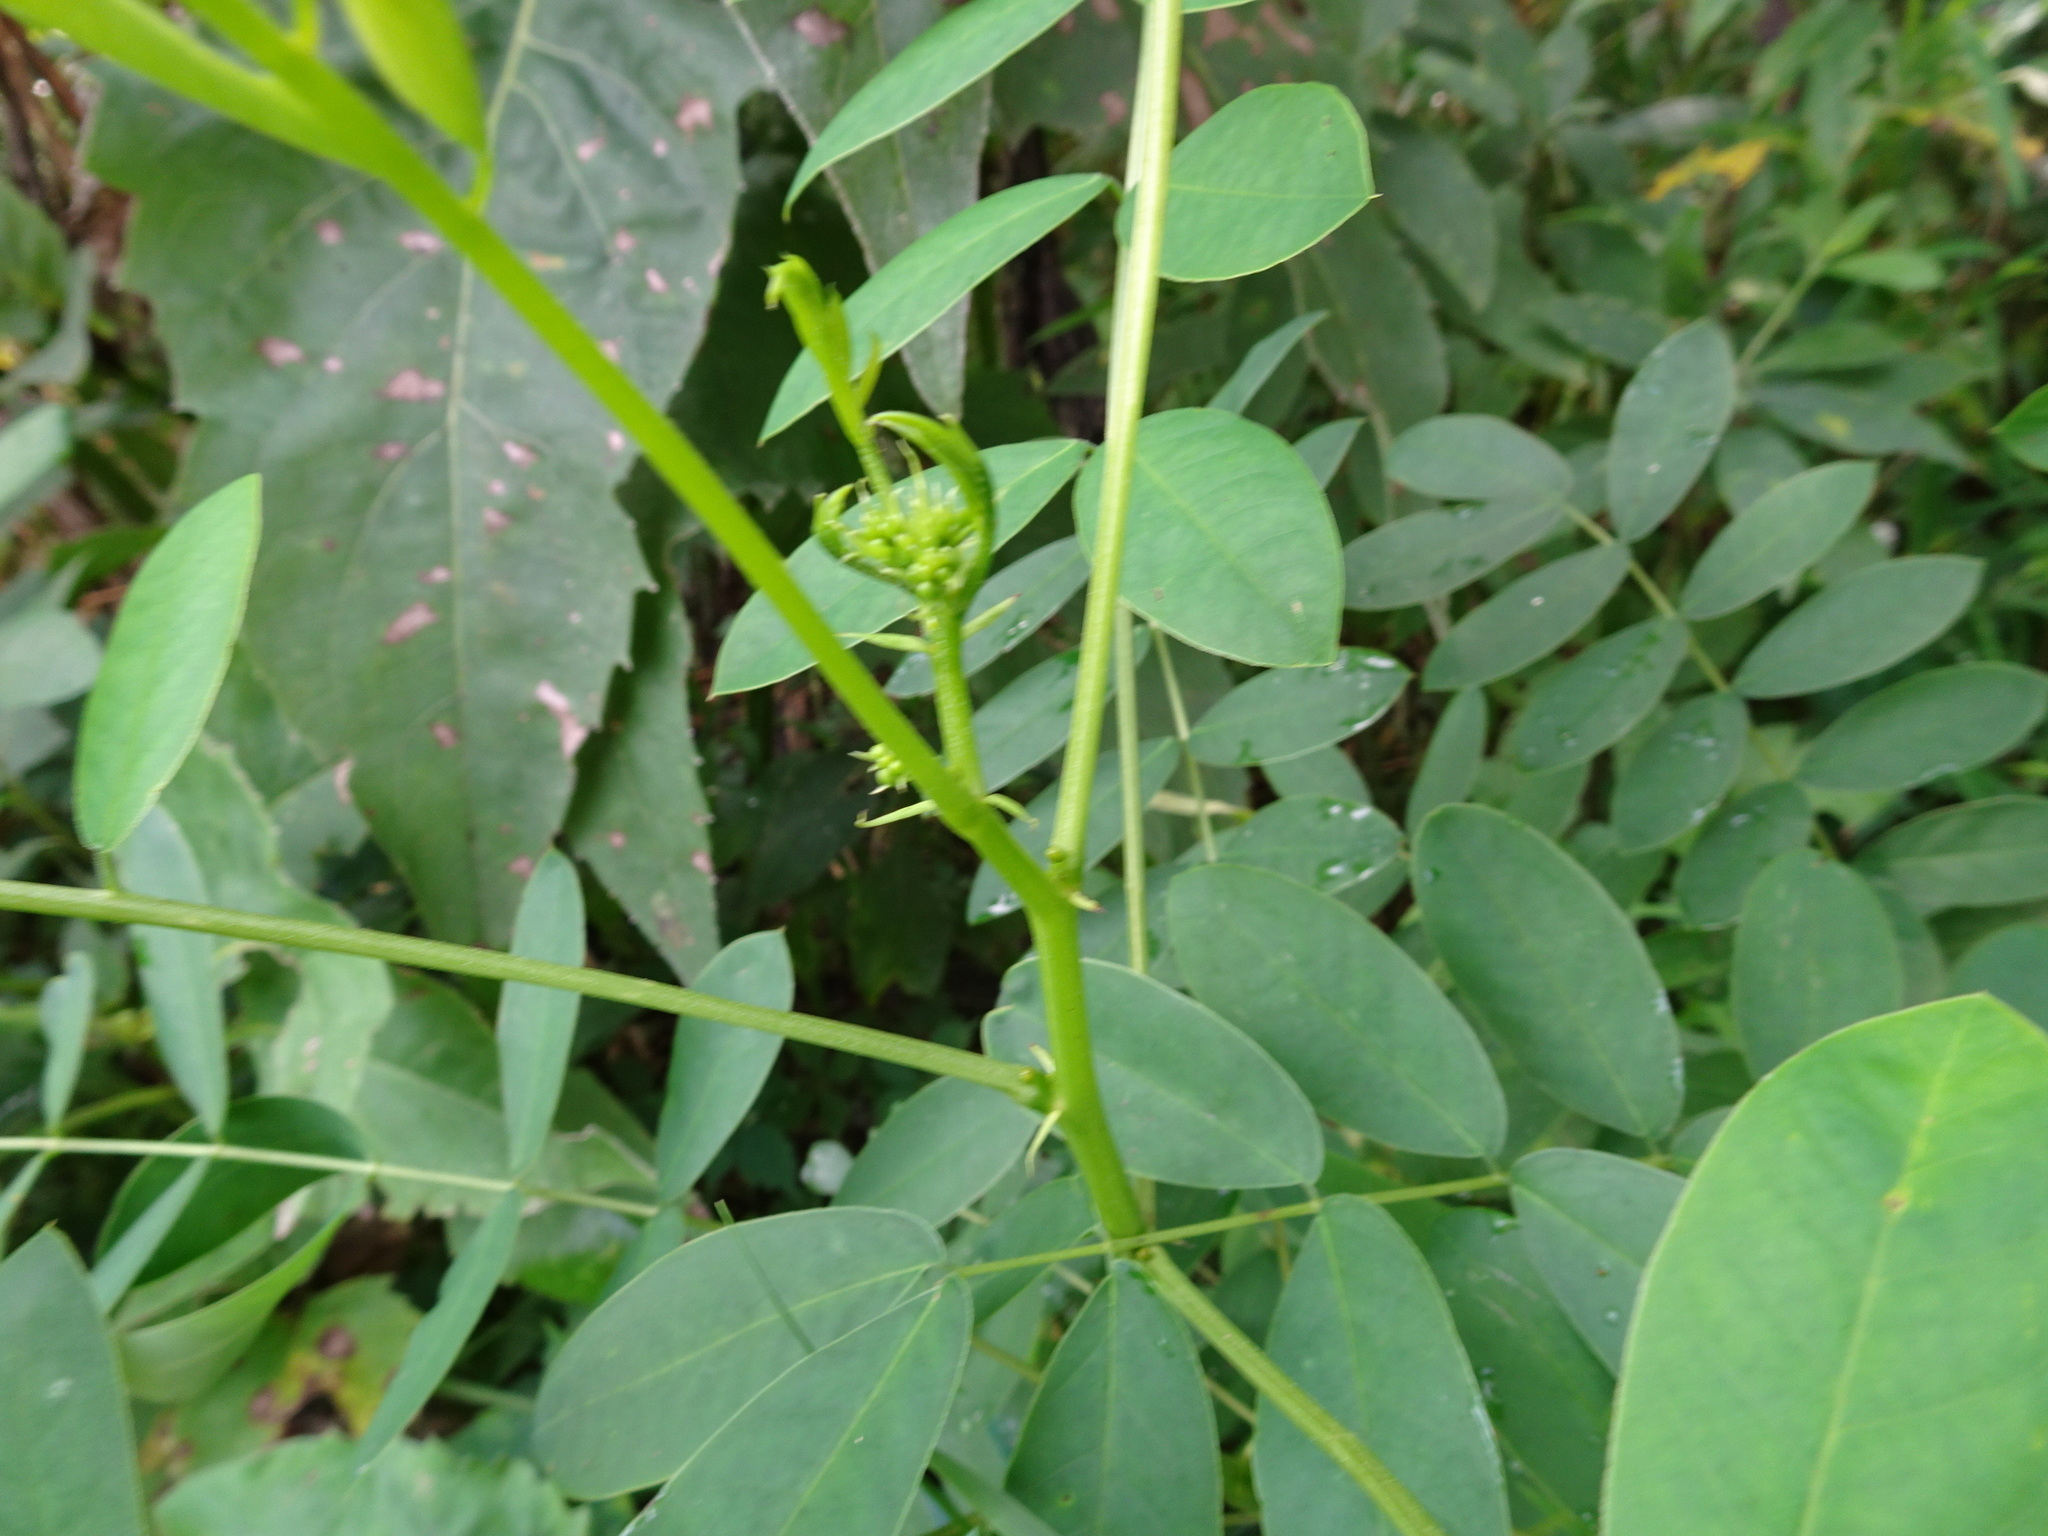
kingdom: Plantae
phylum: Tracheophyta
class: Magnoliopsida
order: Fabales
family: Fabaceae
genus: Senna
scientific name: Senna marilandica
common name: American senna
